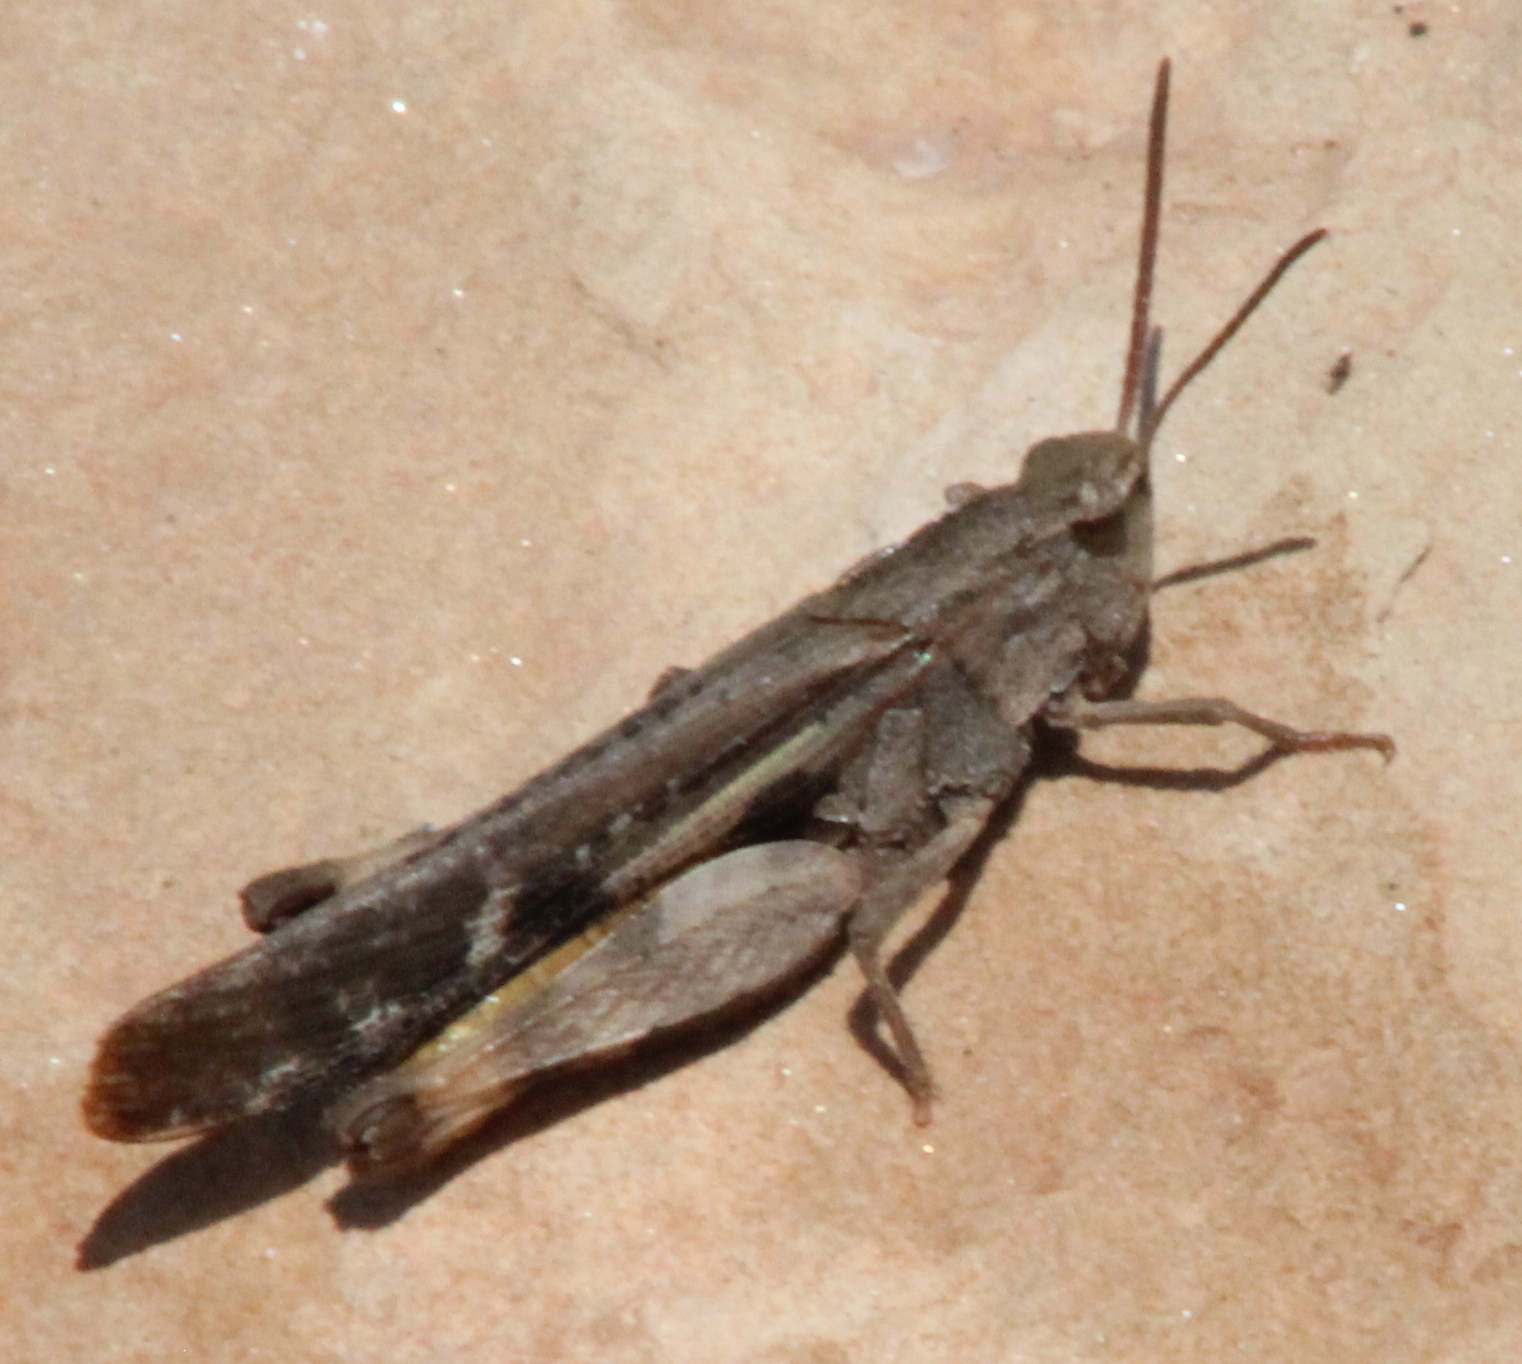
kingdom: Animalia
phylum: Arthropoda
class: Insecta
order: Orthoptera
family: Acrididae
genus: Chortophaga
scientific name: Chortophaga viridifasciata
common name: Green-striped grasshopper
